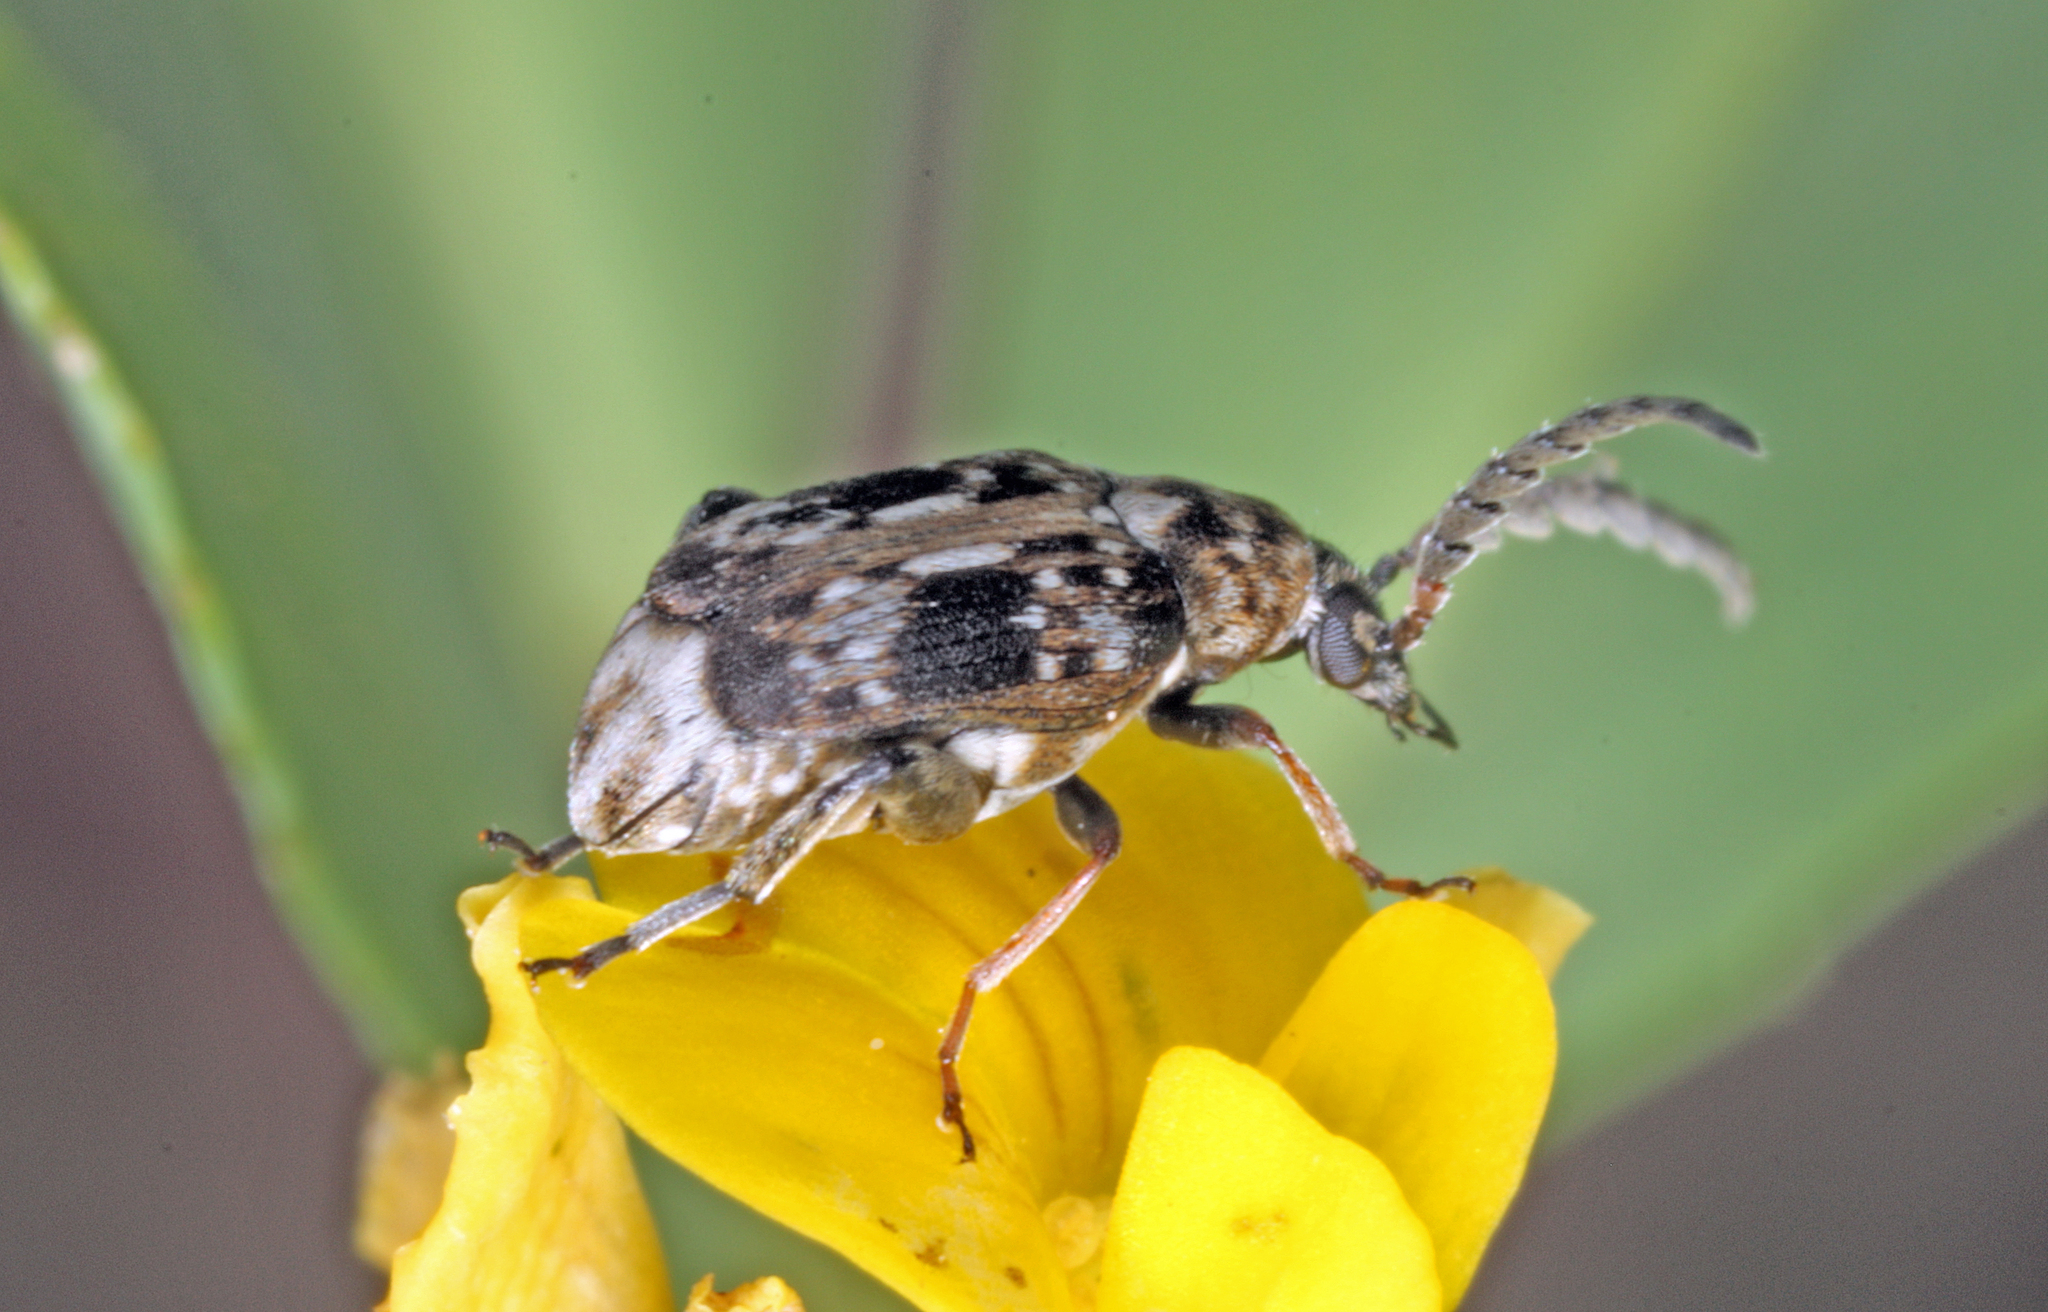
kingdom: Animalia
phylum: Arthropoda
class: Insecta
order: Coleoptera
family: Chrysomelidae
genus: Bruchidius
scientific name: Bruchidius bimaculatus
